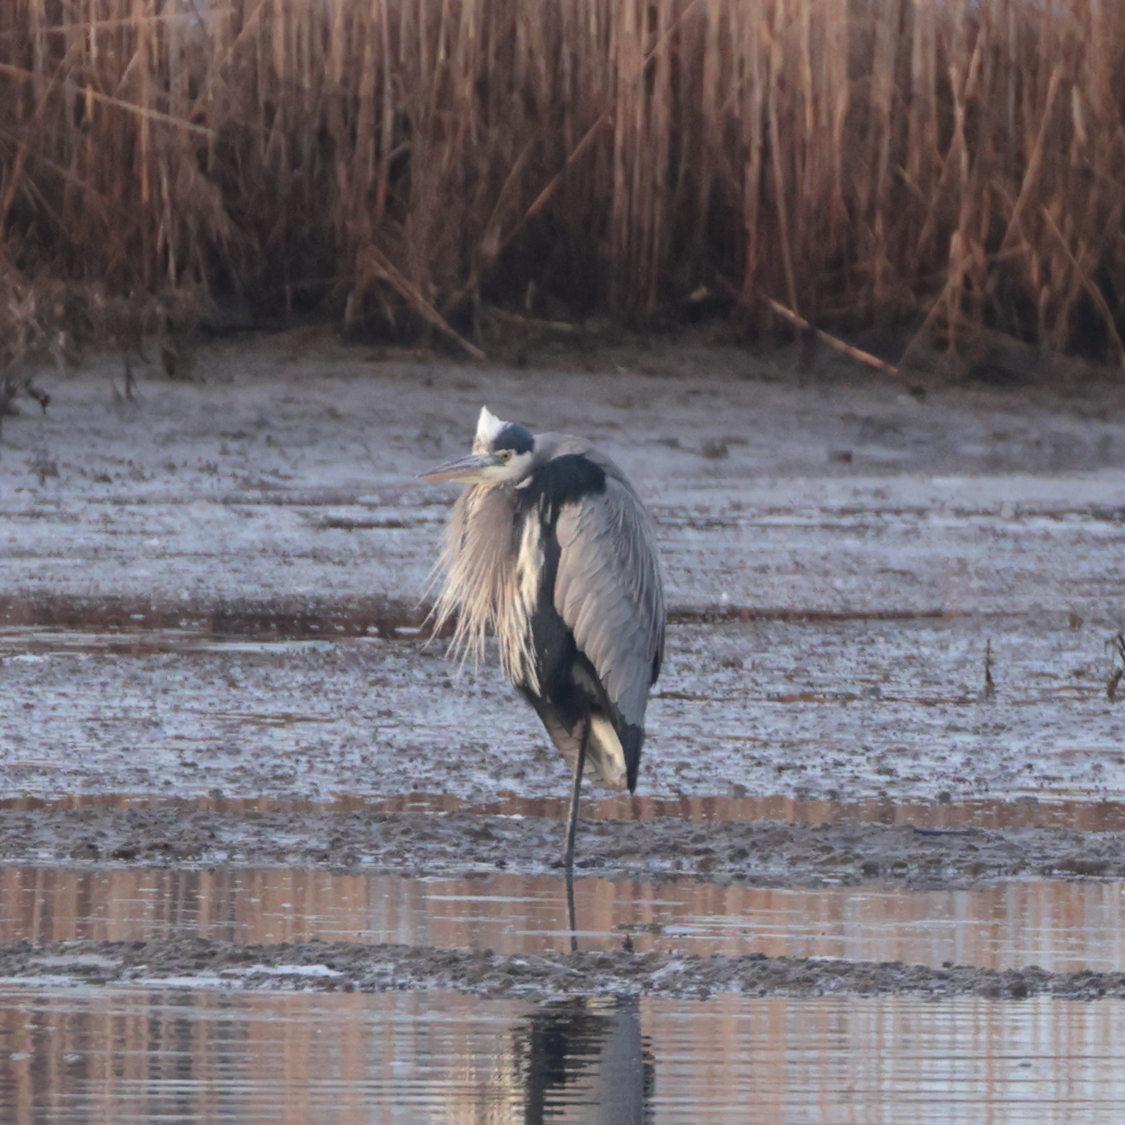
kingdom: Animalia
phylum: Chordata
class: Aves
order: Pelecaniformes
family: Ardeidae
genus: Ardea
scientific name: Ardea herodias
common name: Great blue heron
